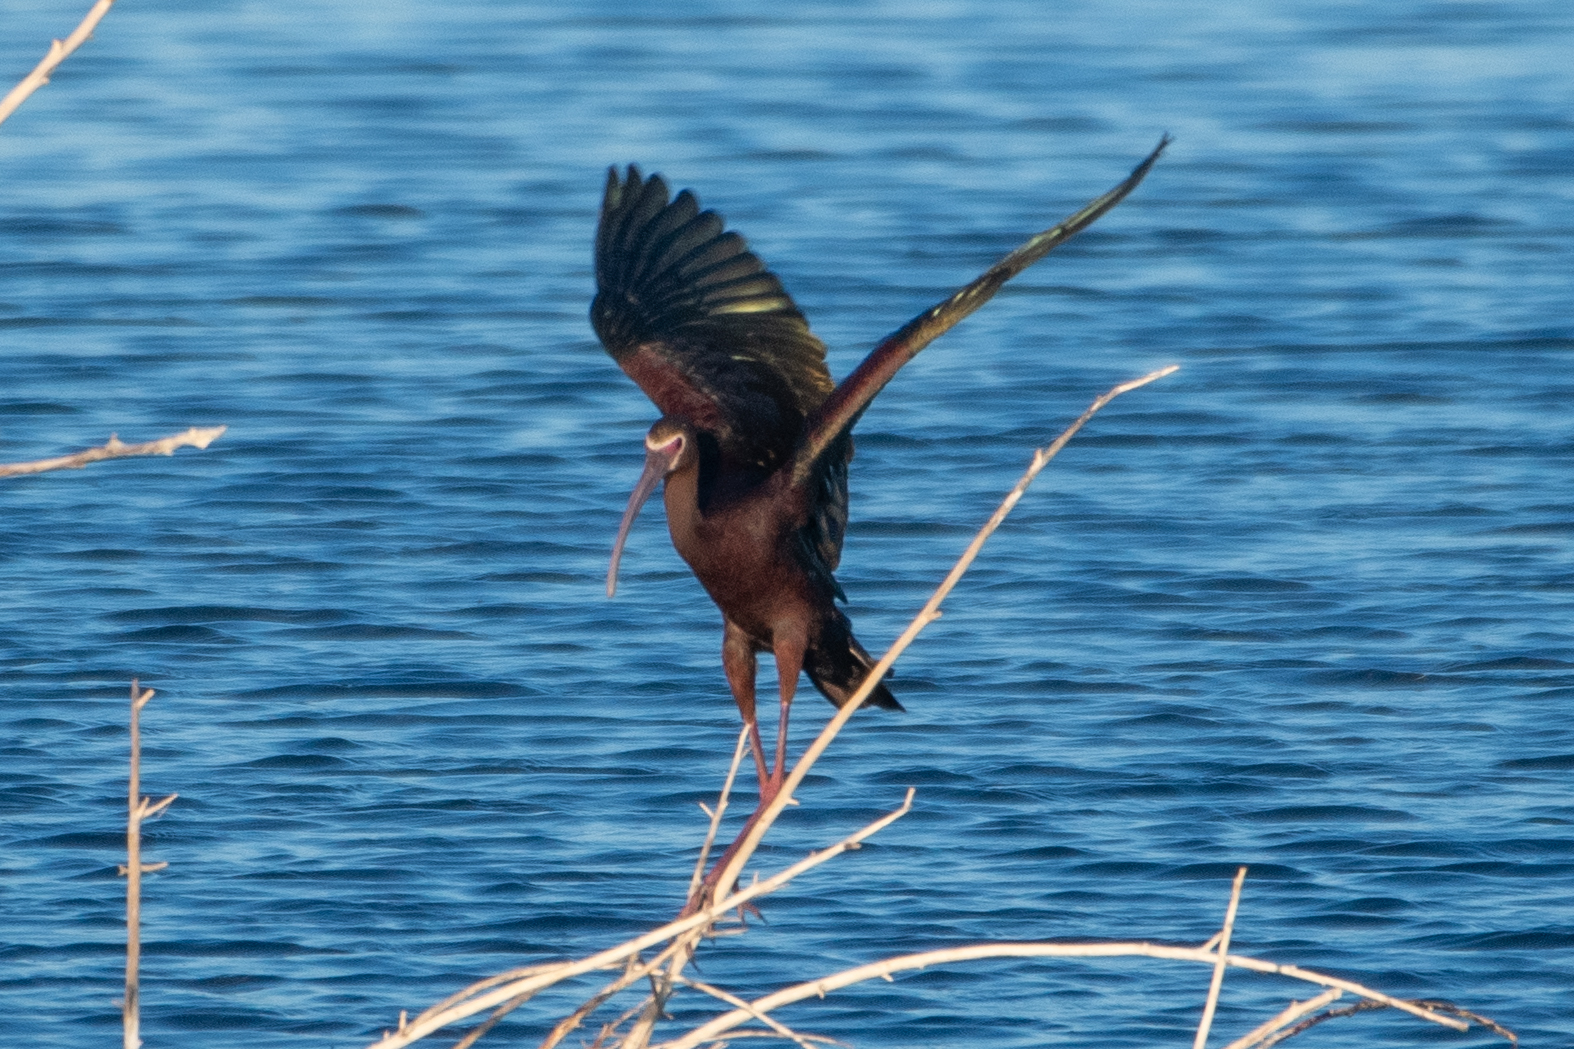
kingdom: Animalia
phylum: Chordata
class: Aves
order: Pelecaniformes
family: Threskiornithidae
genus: Plegadis
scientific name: Plegadis chihi
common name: White-faced ibis
